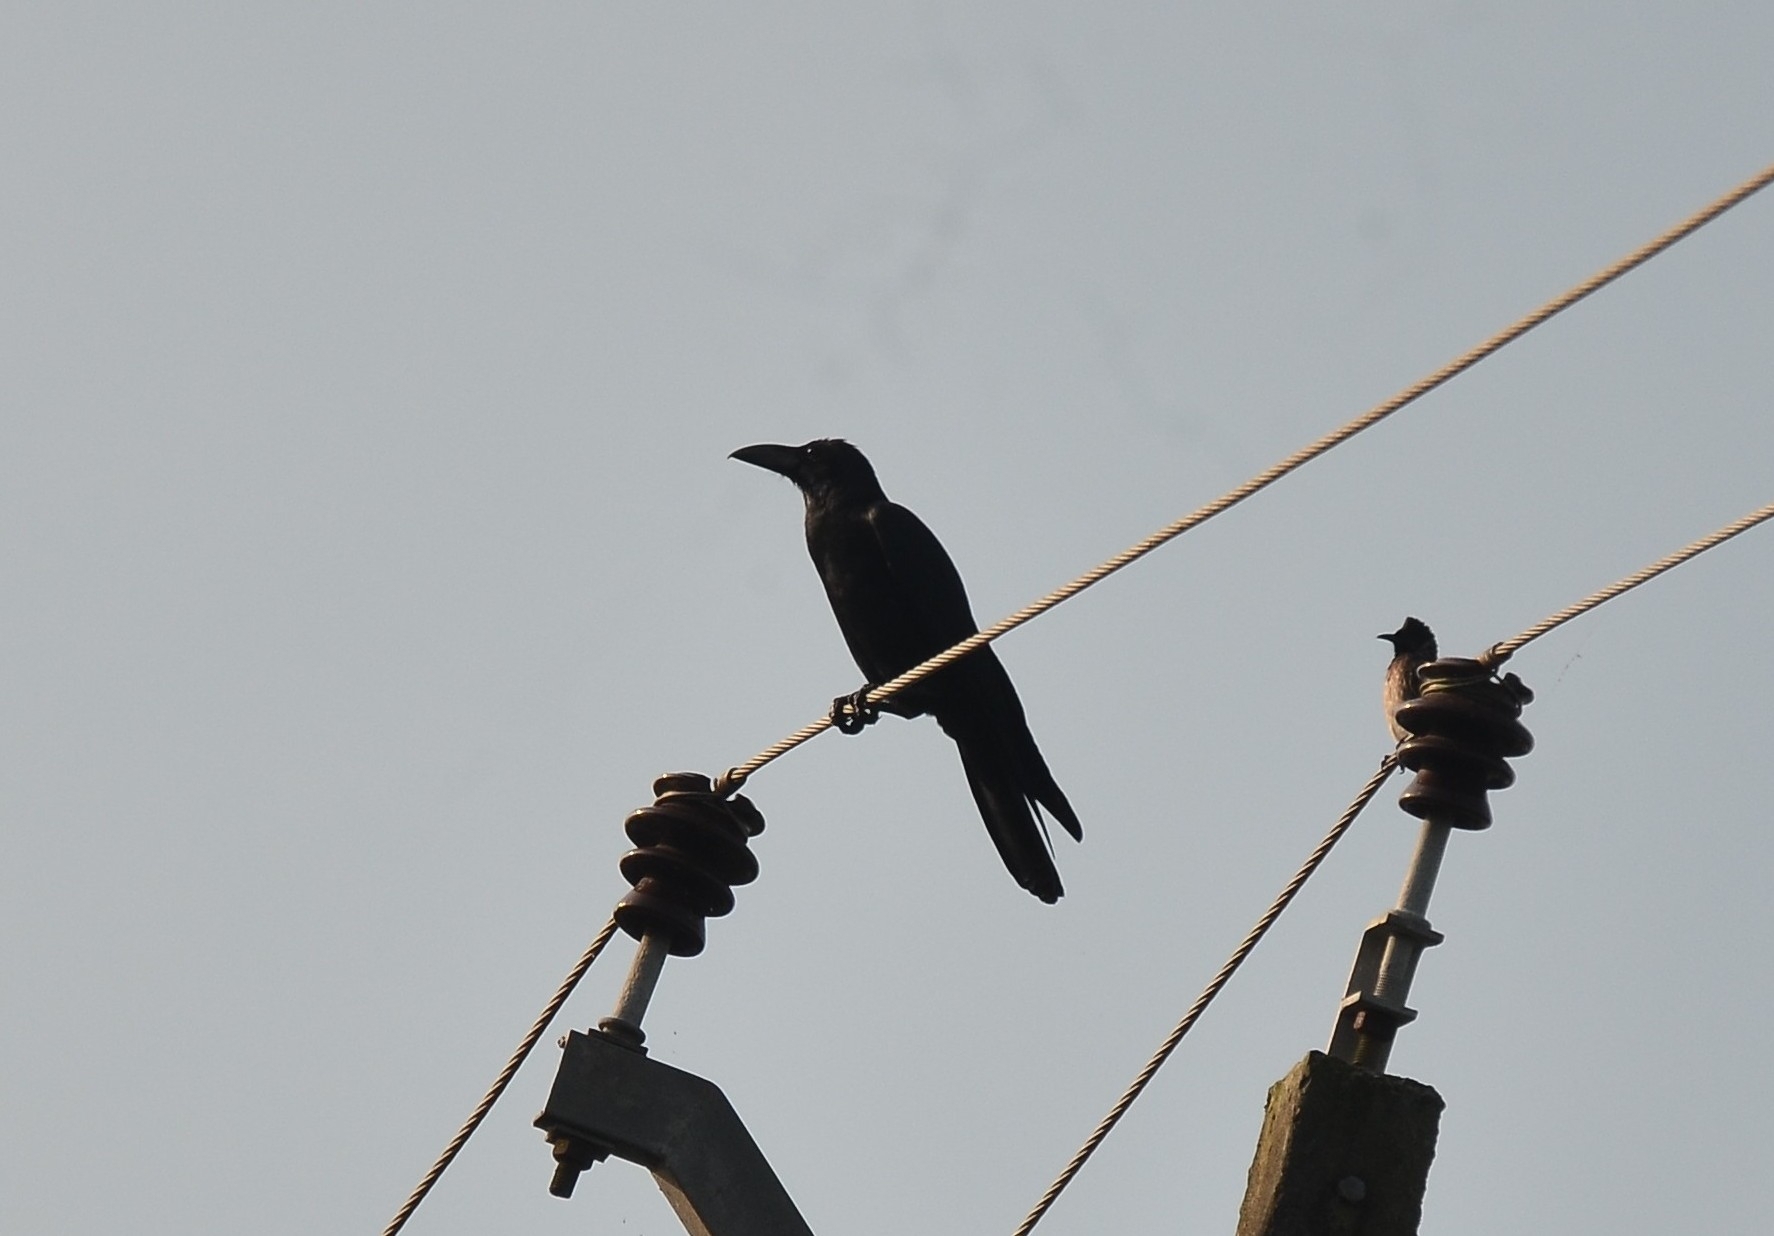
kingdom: Animalia
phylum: Chordata
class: Aves
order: Passeriformes
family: Corvidae
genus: Corvus
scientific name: Corvus macrorhynchos
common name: Large-billed crow
